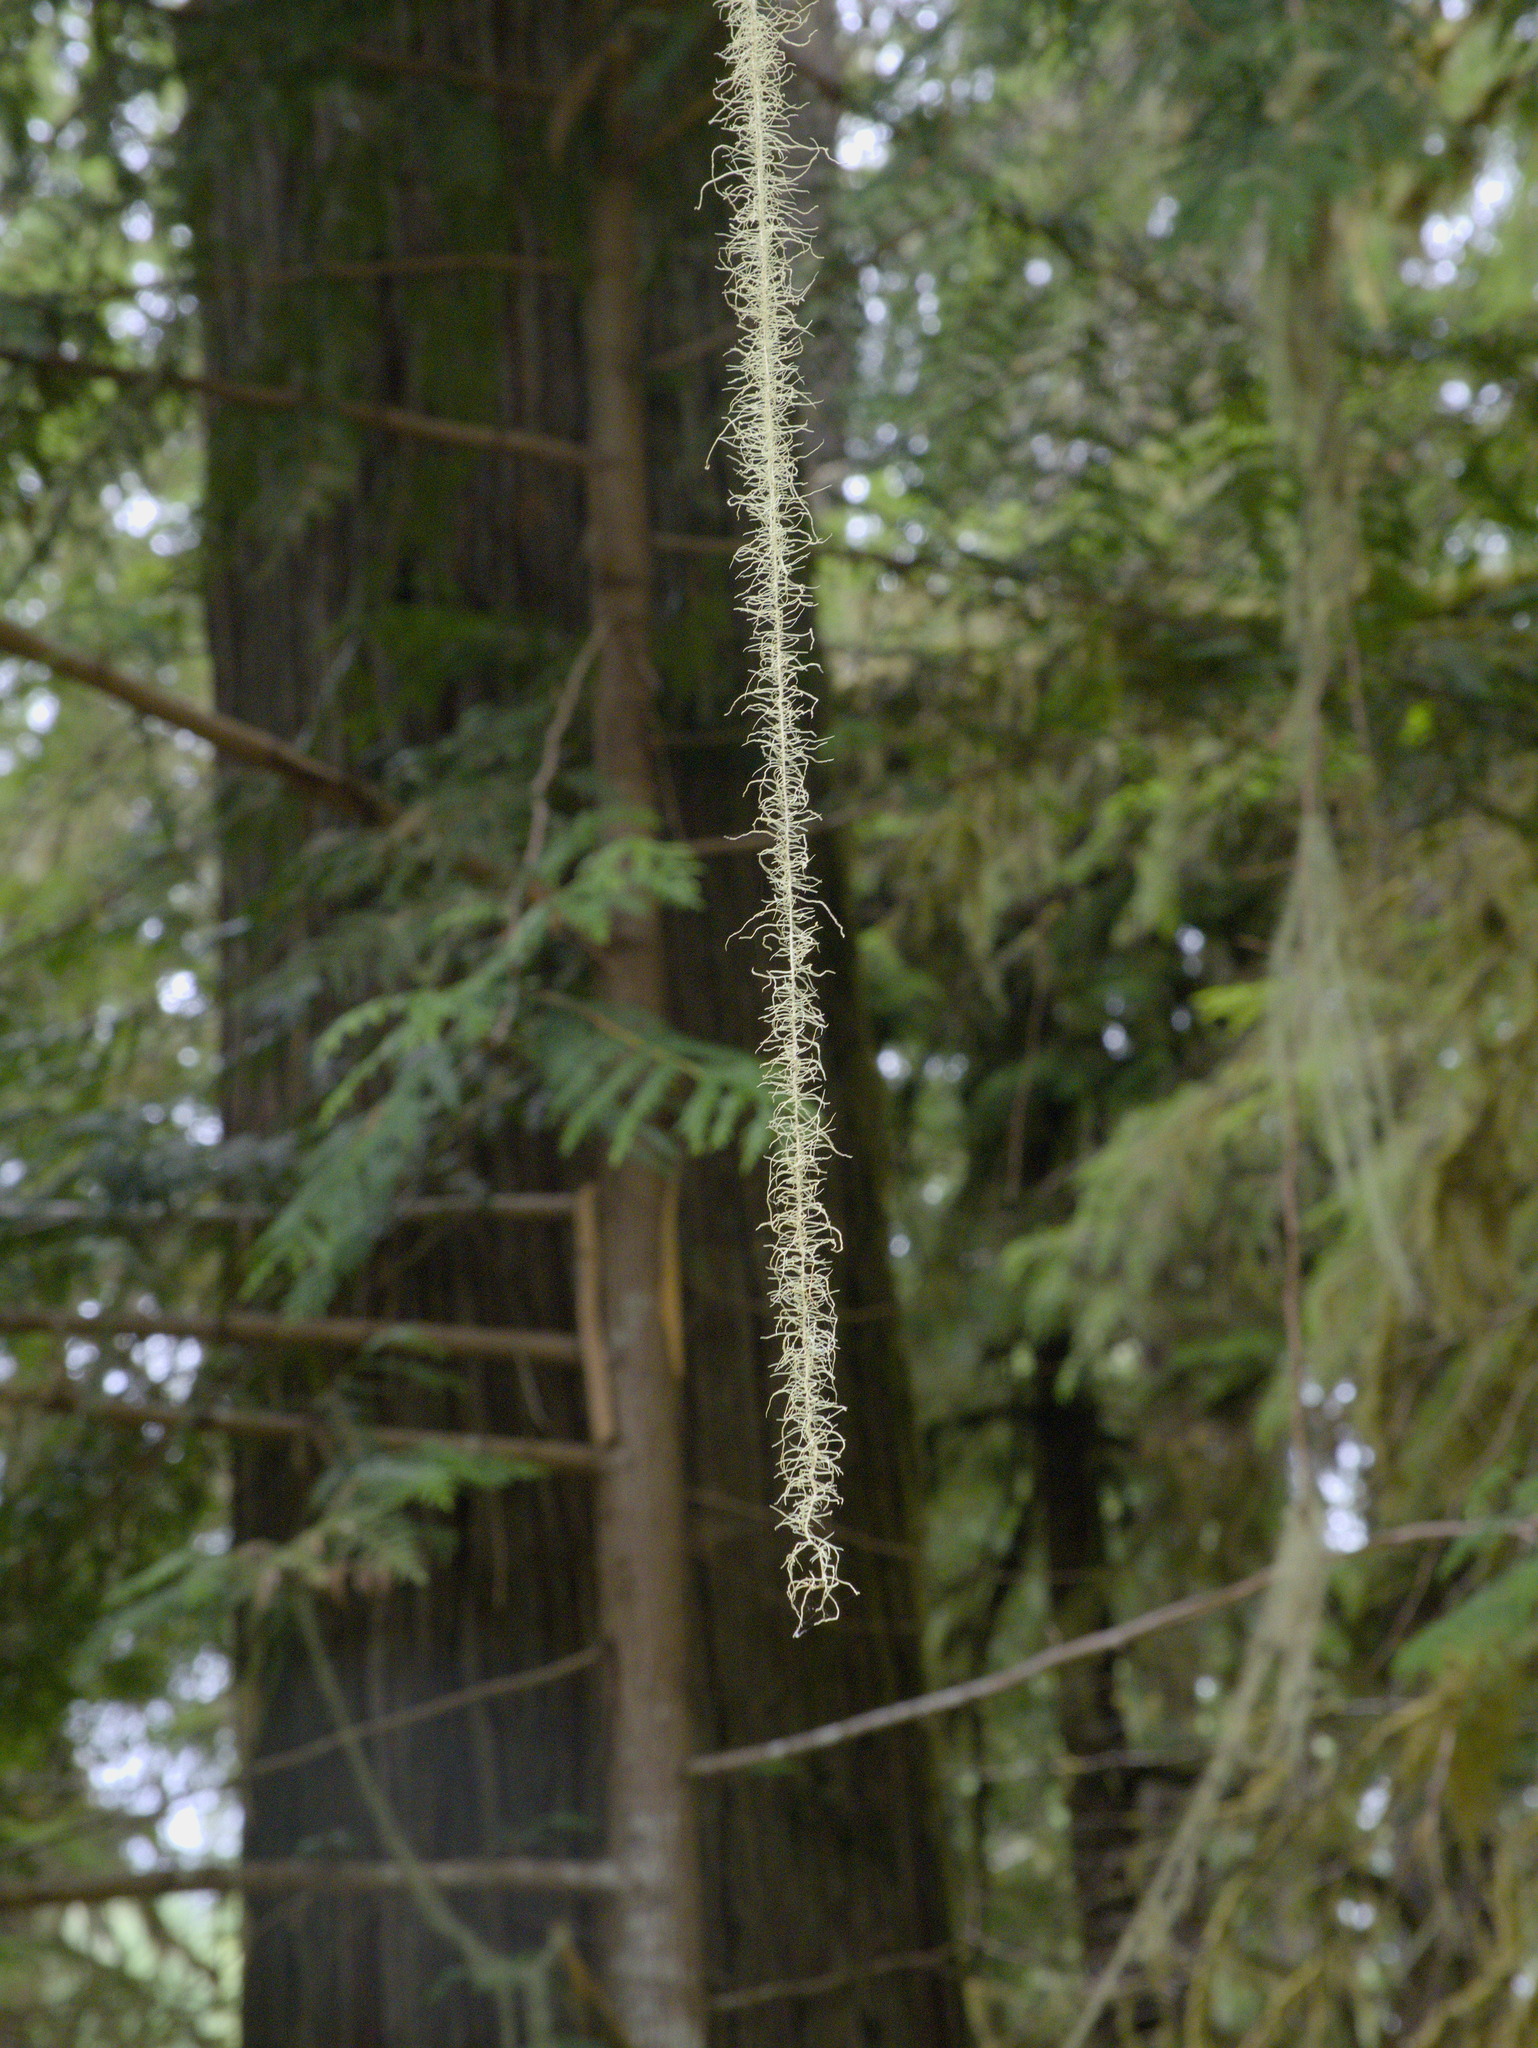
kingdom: Fungi
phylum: Ascomycota
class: Lecanoromycetes
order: Lecanorales
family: Parmeliaceae
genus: Dolichousnea
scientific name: Dolichousnea longissima
